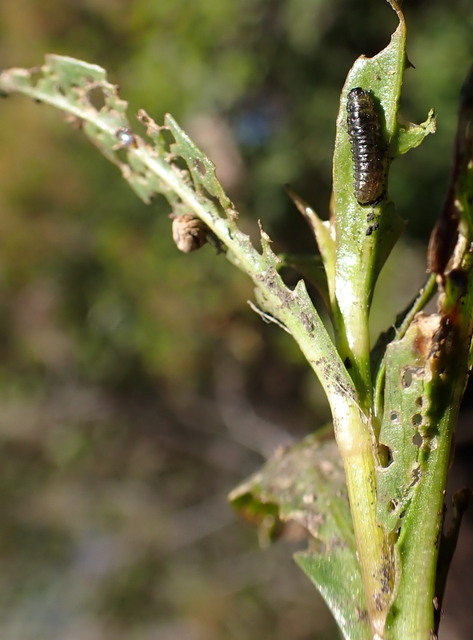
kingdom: Animalia
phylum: Arthropoda
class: Insecta
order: Coleoptera
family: Chrysomelidae
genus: Agasicles
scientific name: Agasicles hygrophila
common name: Alligatorweed flea beetle
